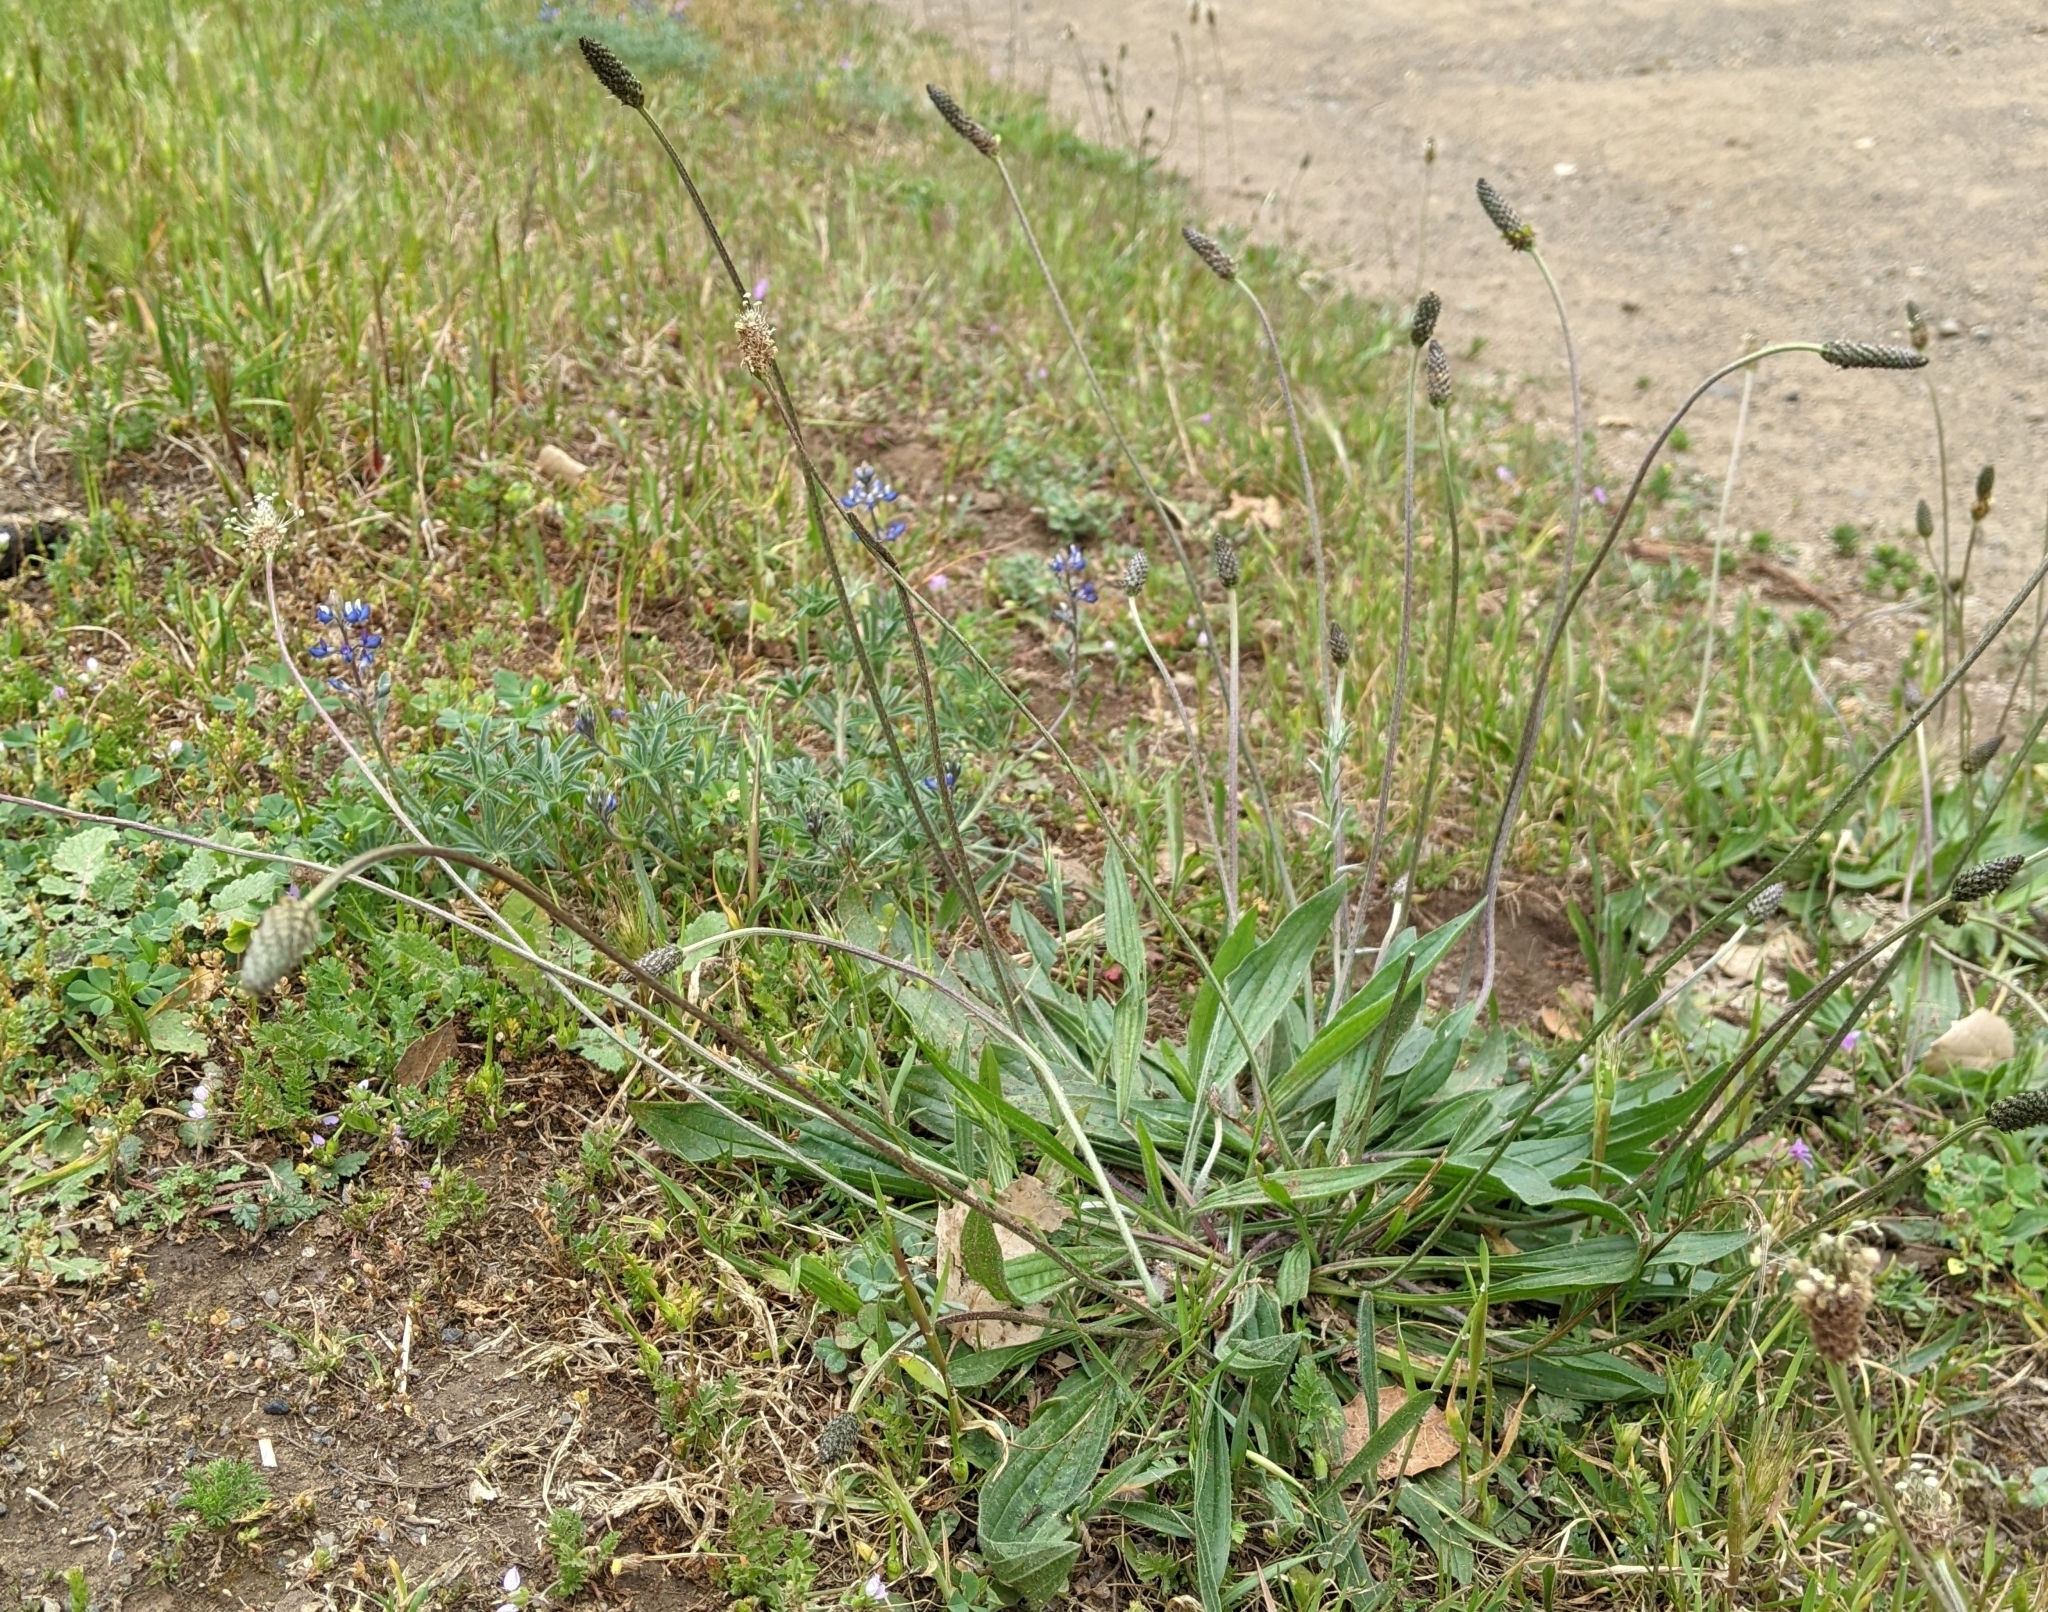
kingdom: Plantae
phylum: Tracheophyta
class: Magnoliopsida
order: Lamiales
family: Plantaginaceae
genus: Plantago
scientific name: Plantago lanceolata
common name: Ribwort plantain
